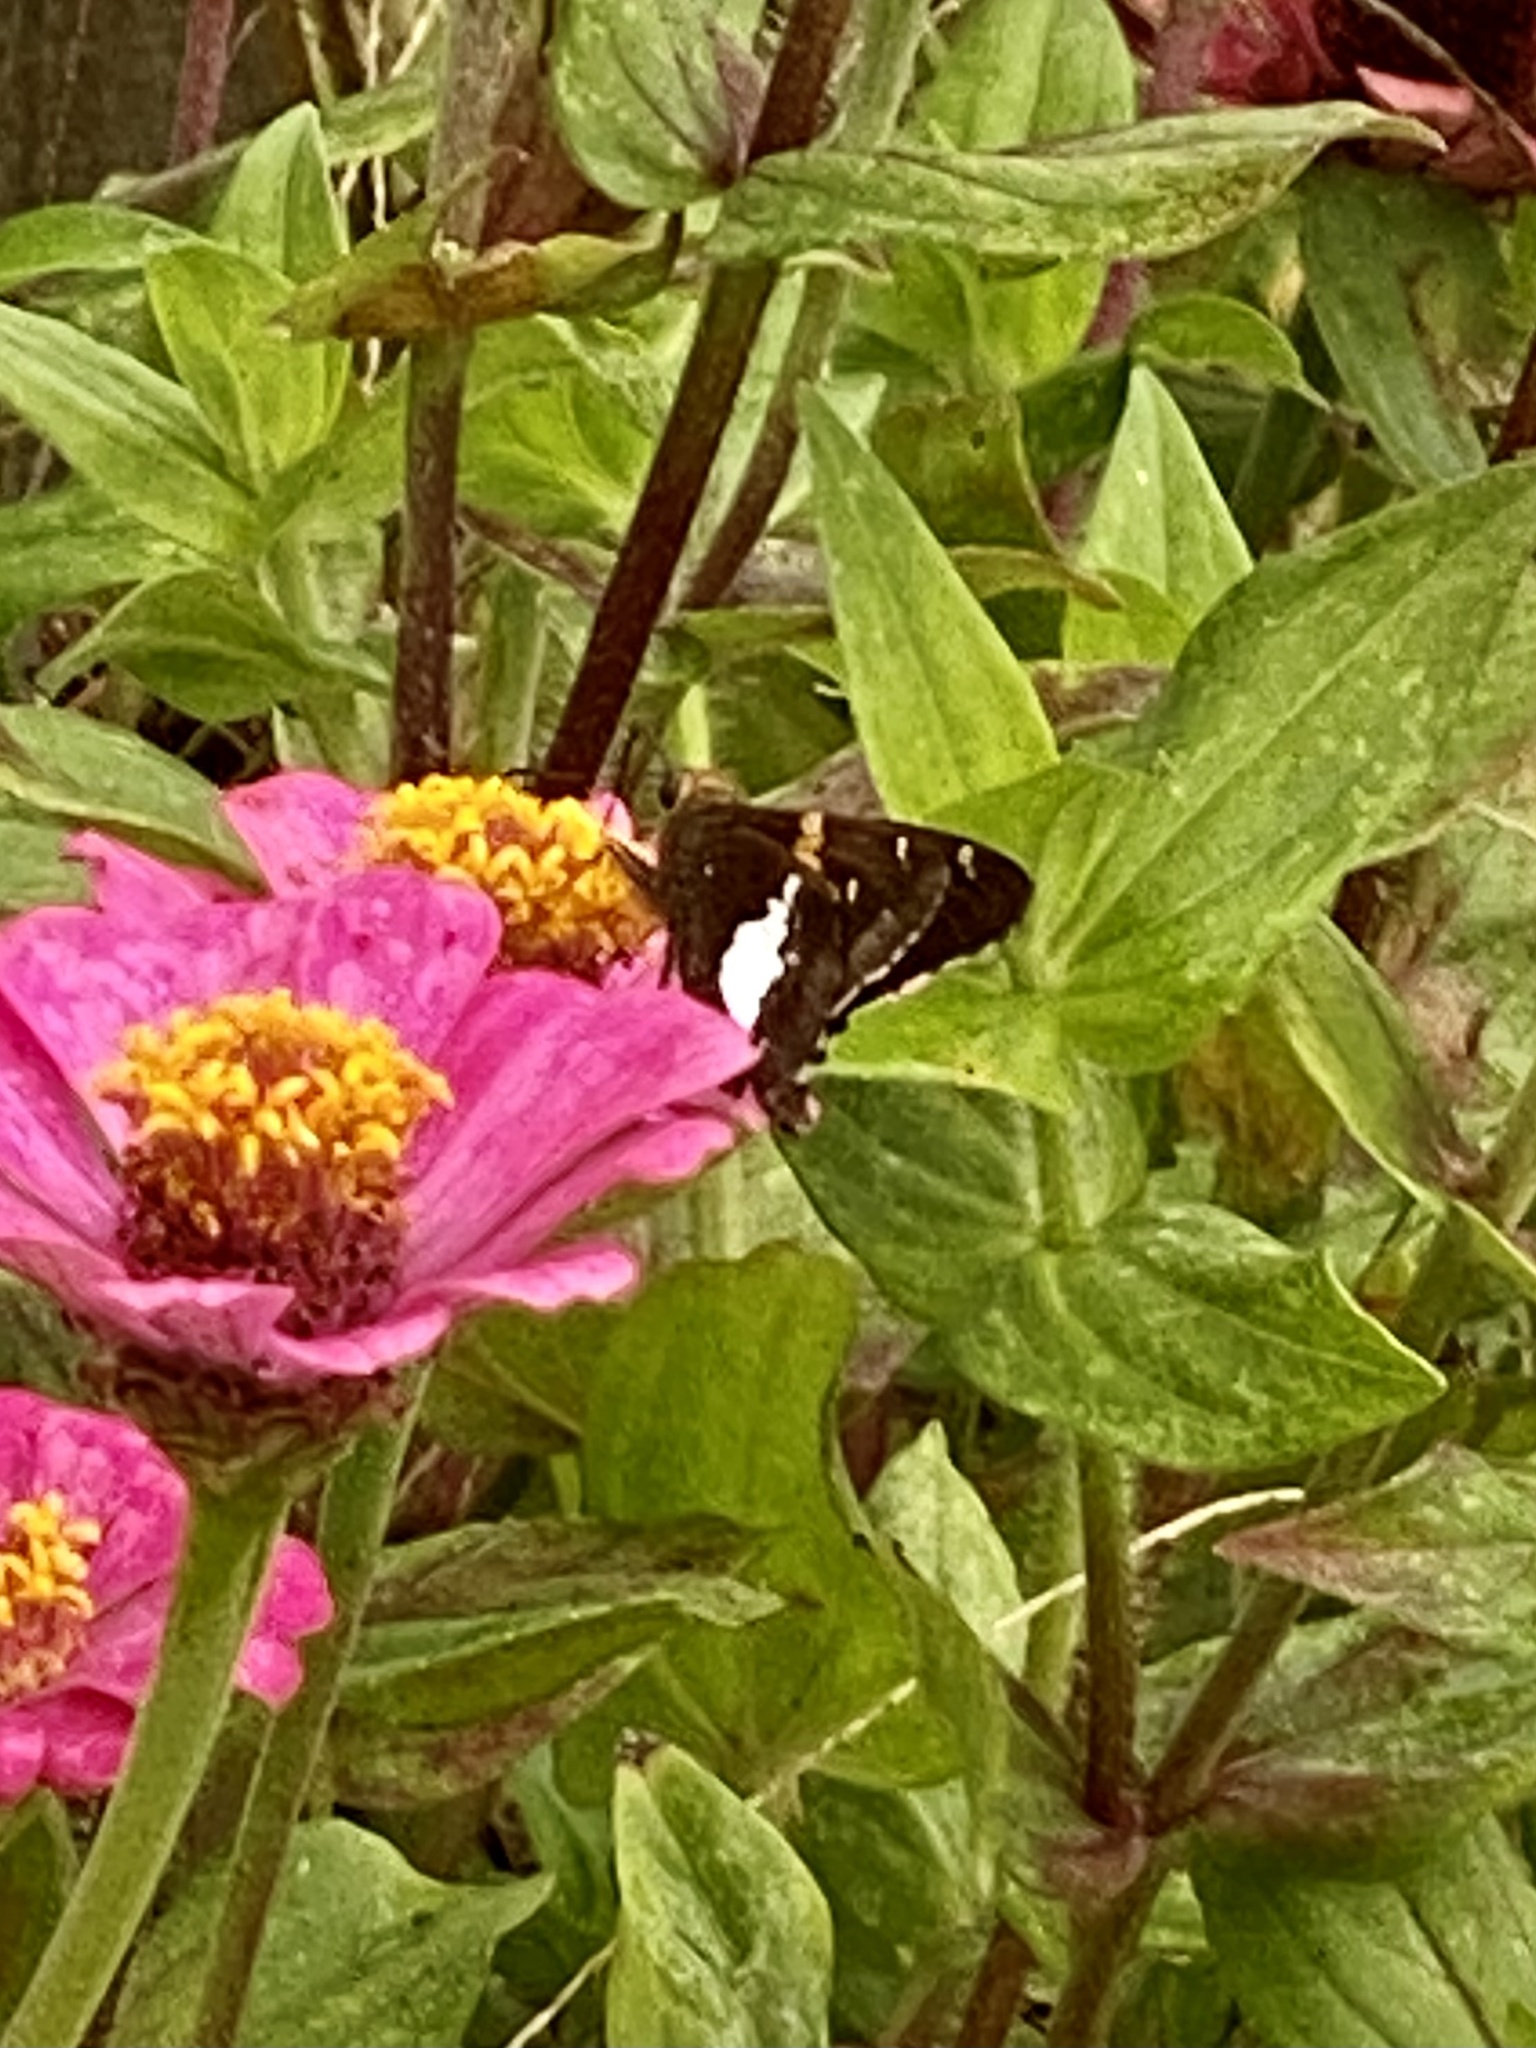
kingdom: Animalia
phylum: Arthropoda
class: Insecta
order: Lepidoptera
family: Hesperiidae
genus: Epargyreus
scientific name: Epargyreus clarus
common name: Silver-spotted skipper
